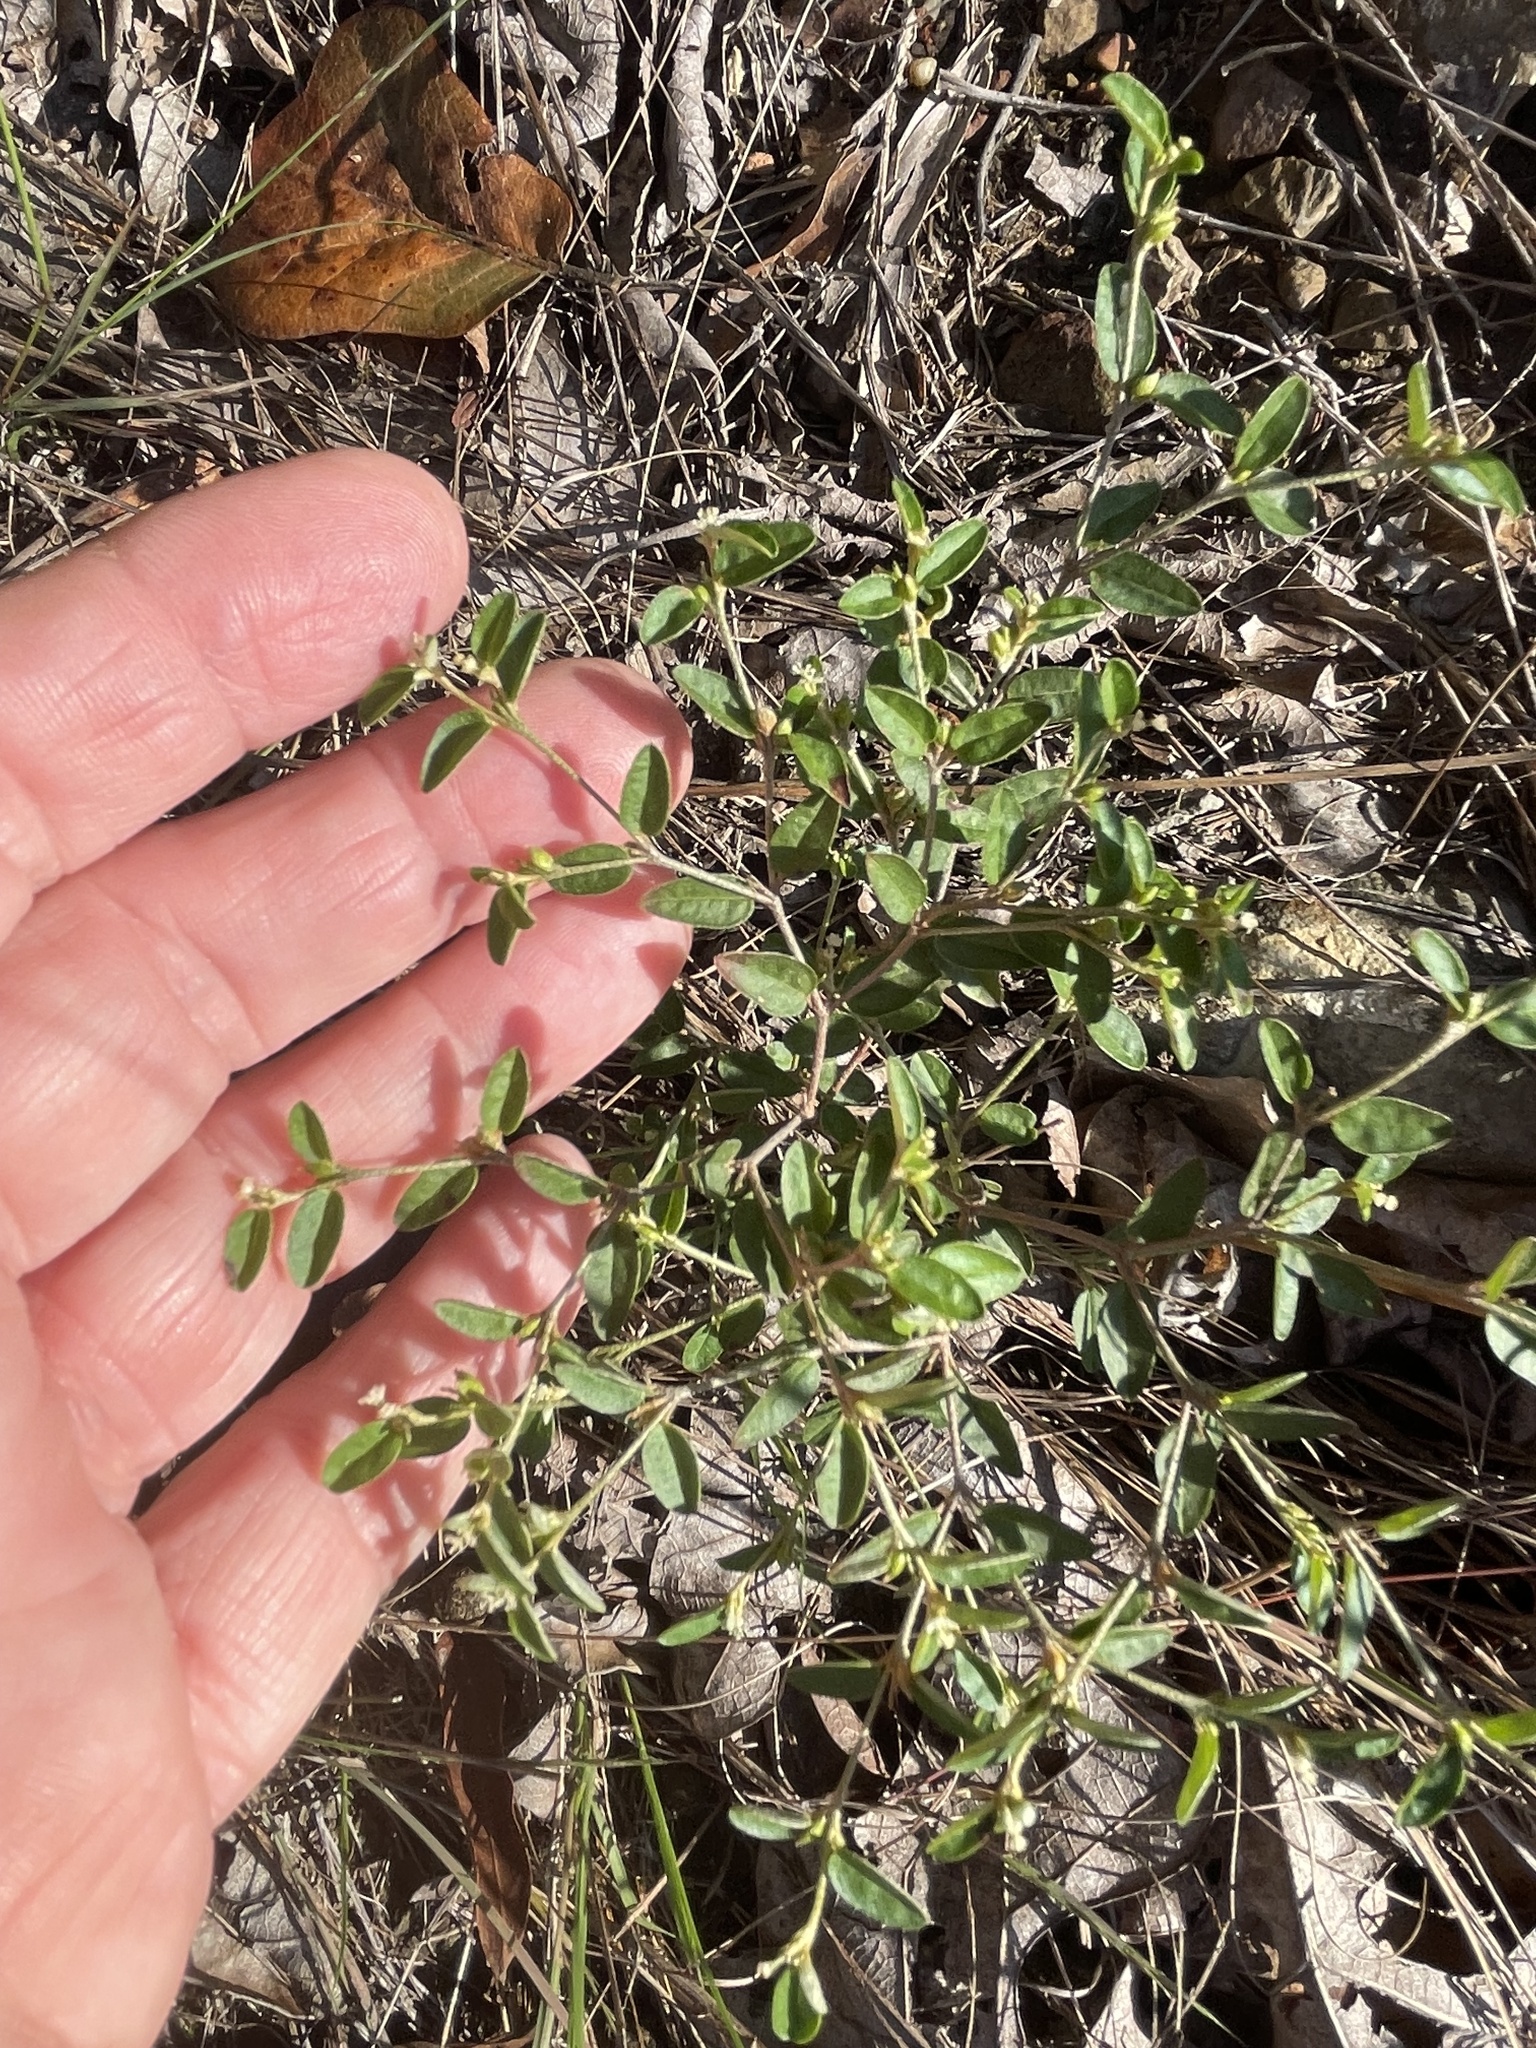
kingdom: Plantae
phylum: Tracheophyta
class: Magnoliopsida
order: Malpighiales
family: Euphorbiaceae
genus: Croton
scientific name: Croton michauxii
